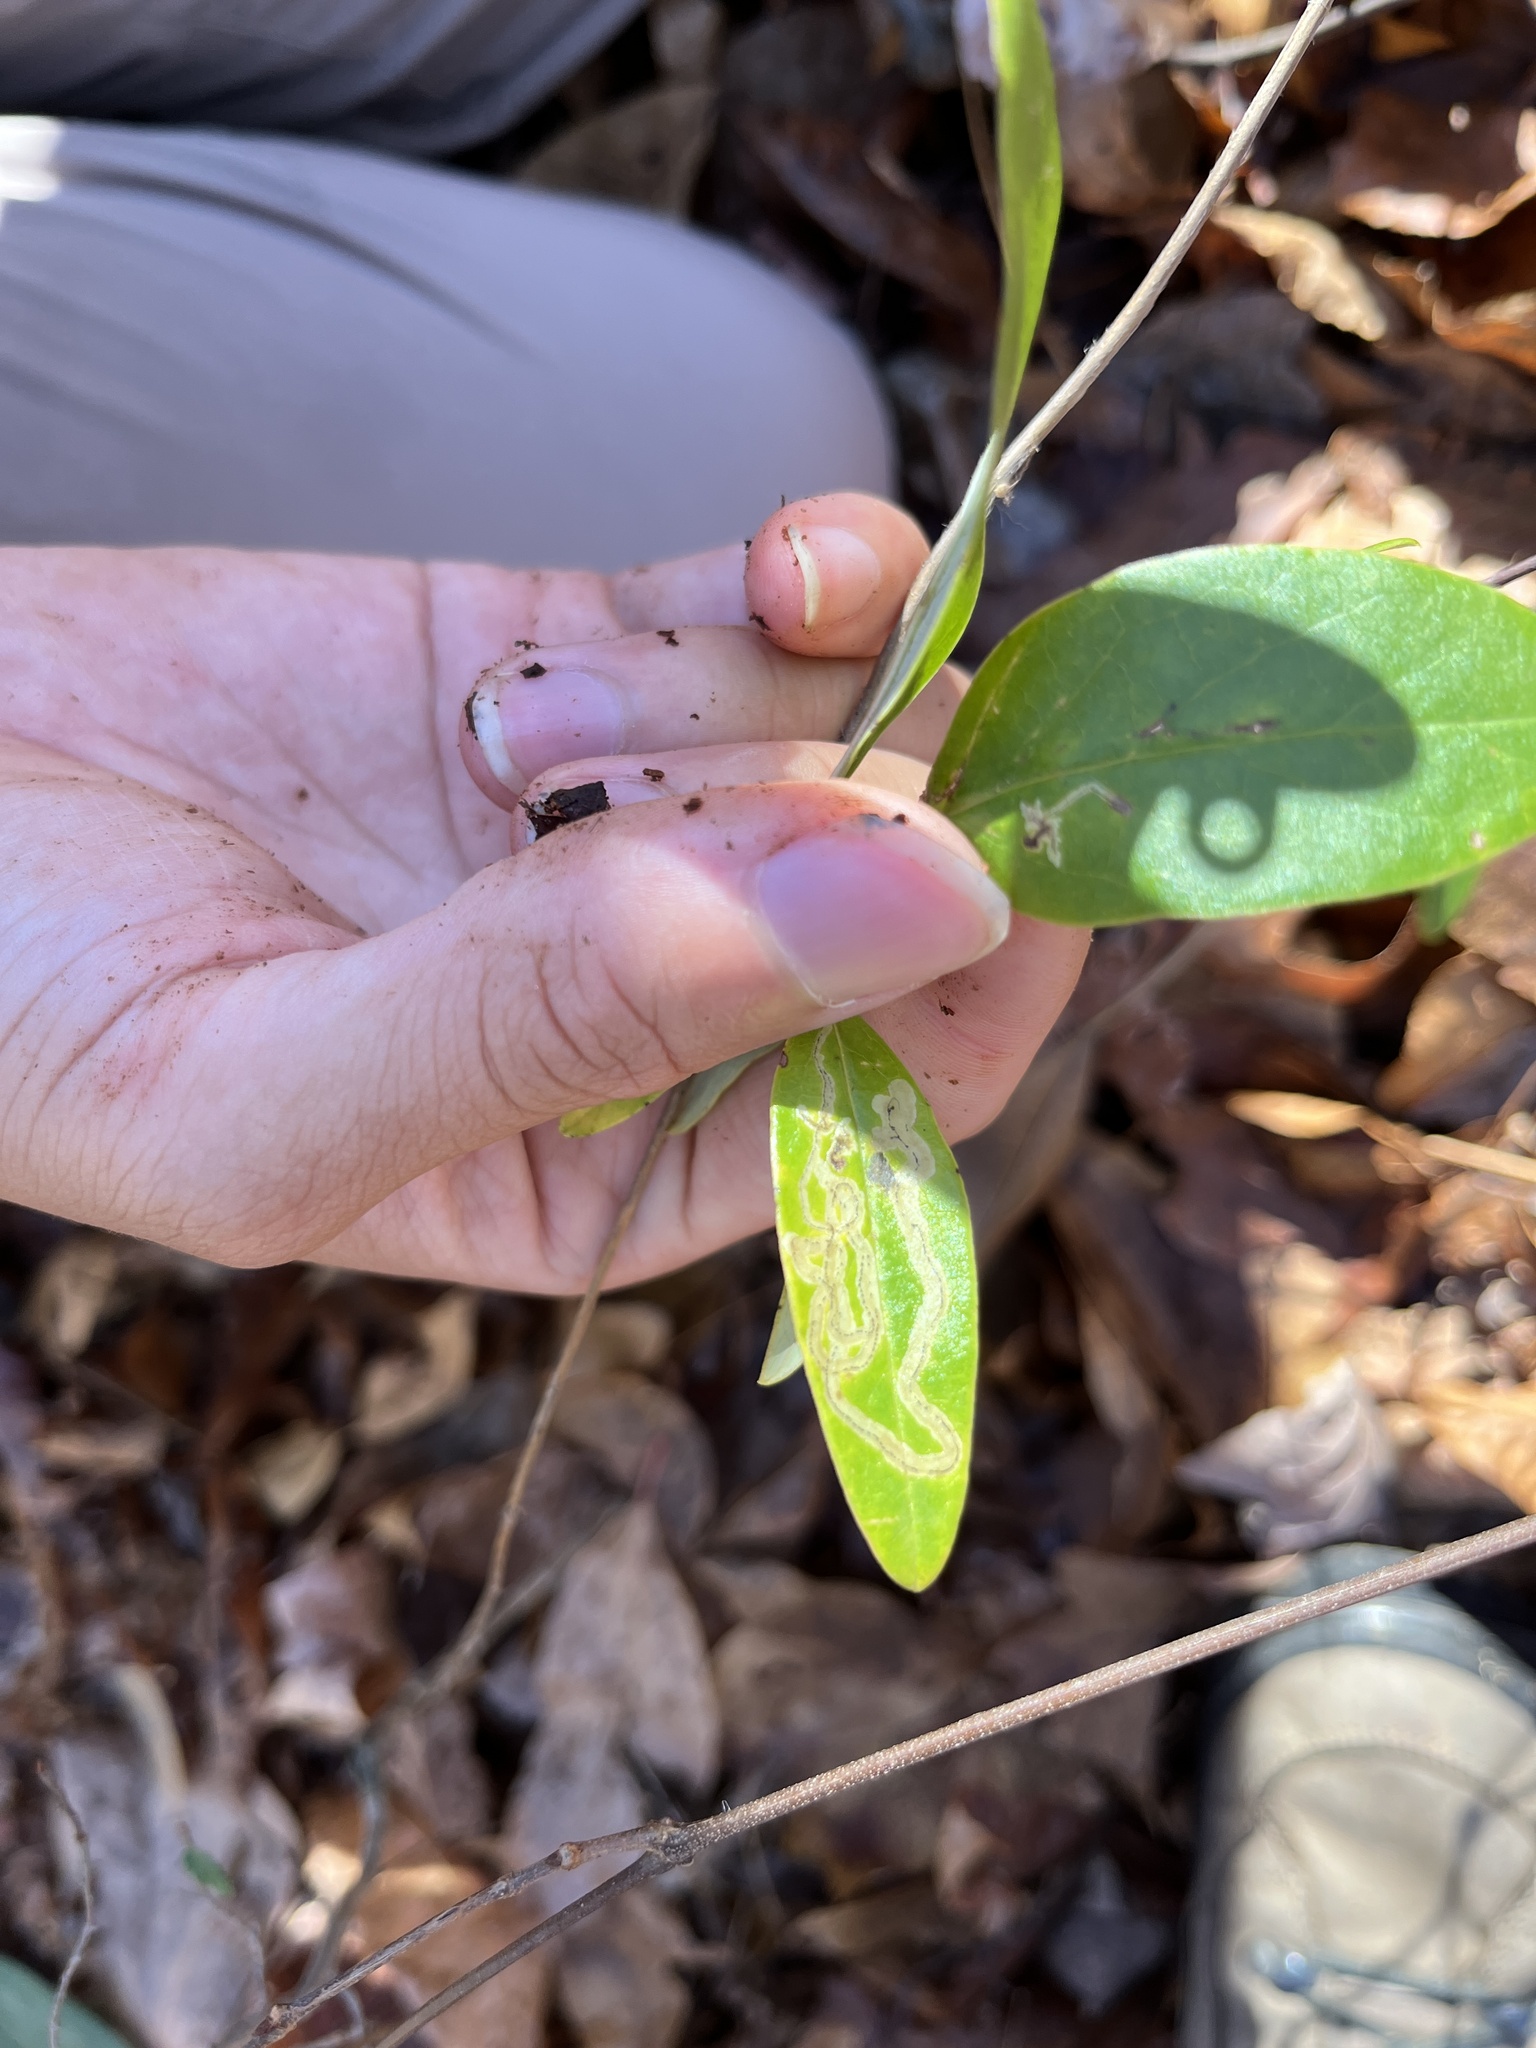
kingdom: Animalia
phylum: Arthropoda
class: Insecta
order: Diptera
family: Agromyzidae
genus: Phytomyza
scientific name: Phytomyza sempervirentis
